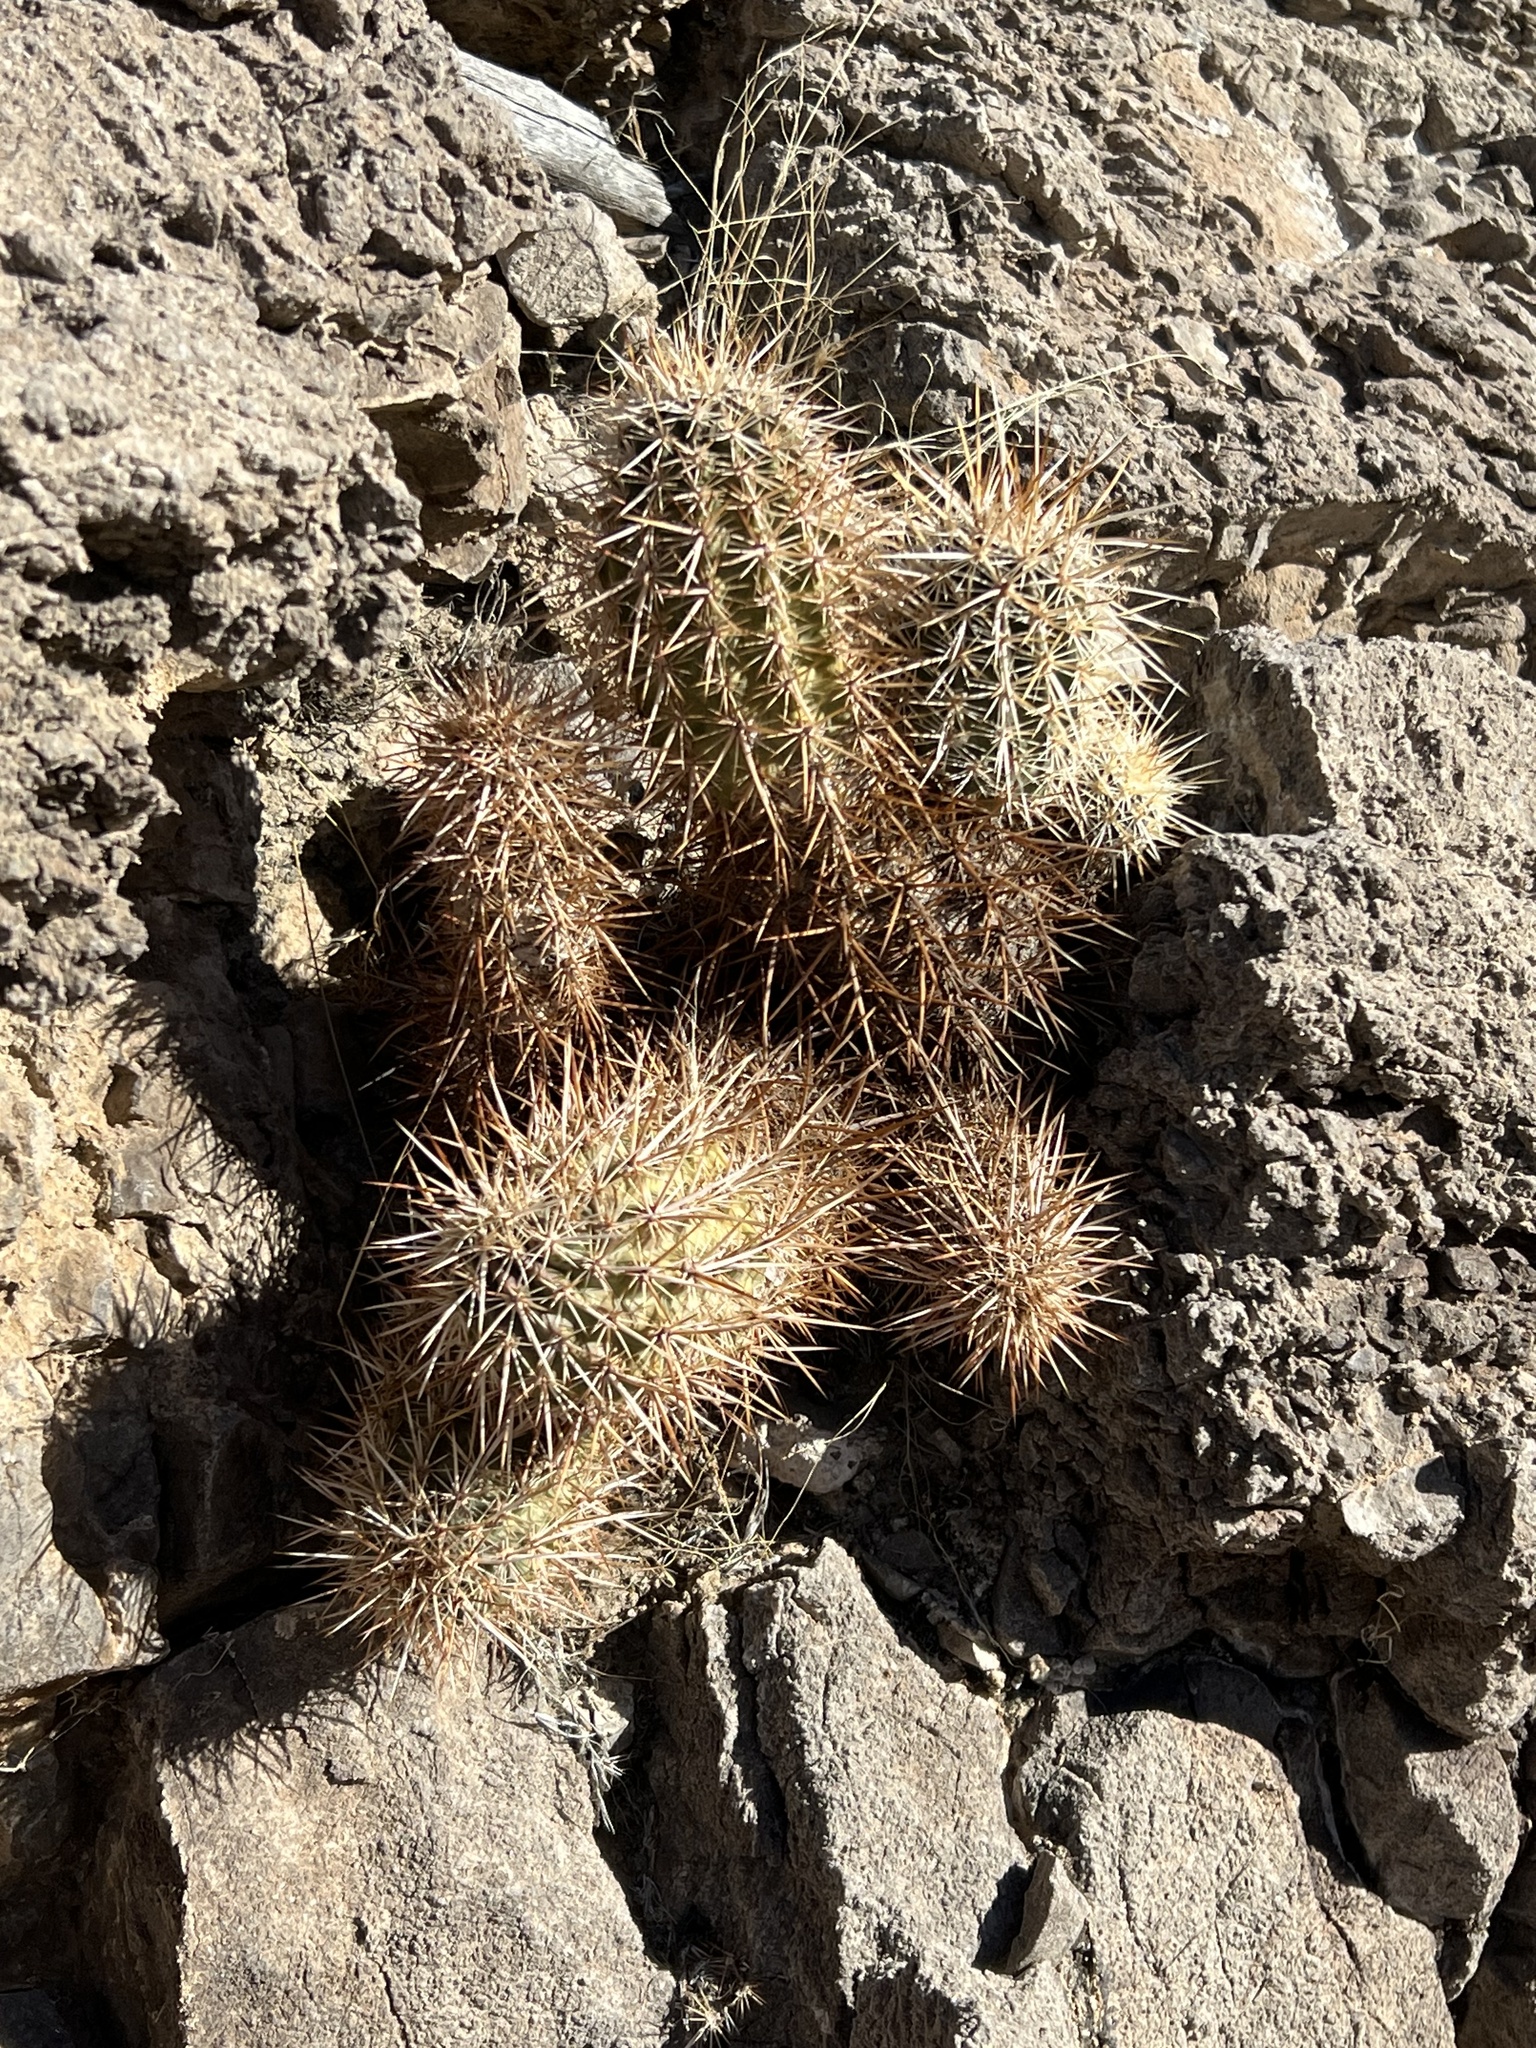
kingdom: Plantae
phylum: Tracheophyta
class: Magnoliopsida
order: Caryophyllales
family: Cactaceae
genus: Echinocereus
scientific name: Echinocereus engelmannii
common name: Engelmann's hedgehog cactus
